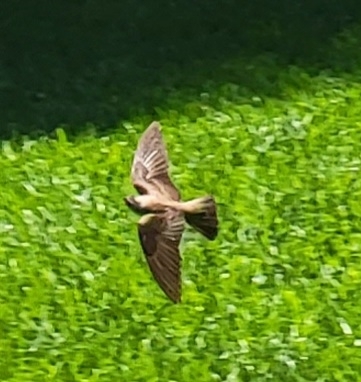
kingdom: Animalia
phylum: Chordata
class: Aves
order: Passeriformes
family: Hirundinidae
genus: Stelgidopteryx
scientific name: Stelgidopteryx serripennis
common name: Northern rough-winged swallow
